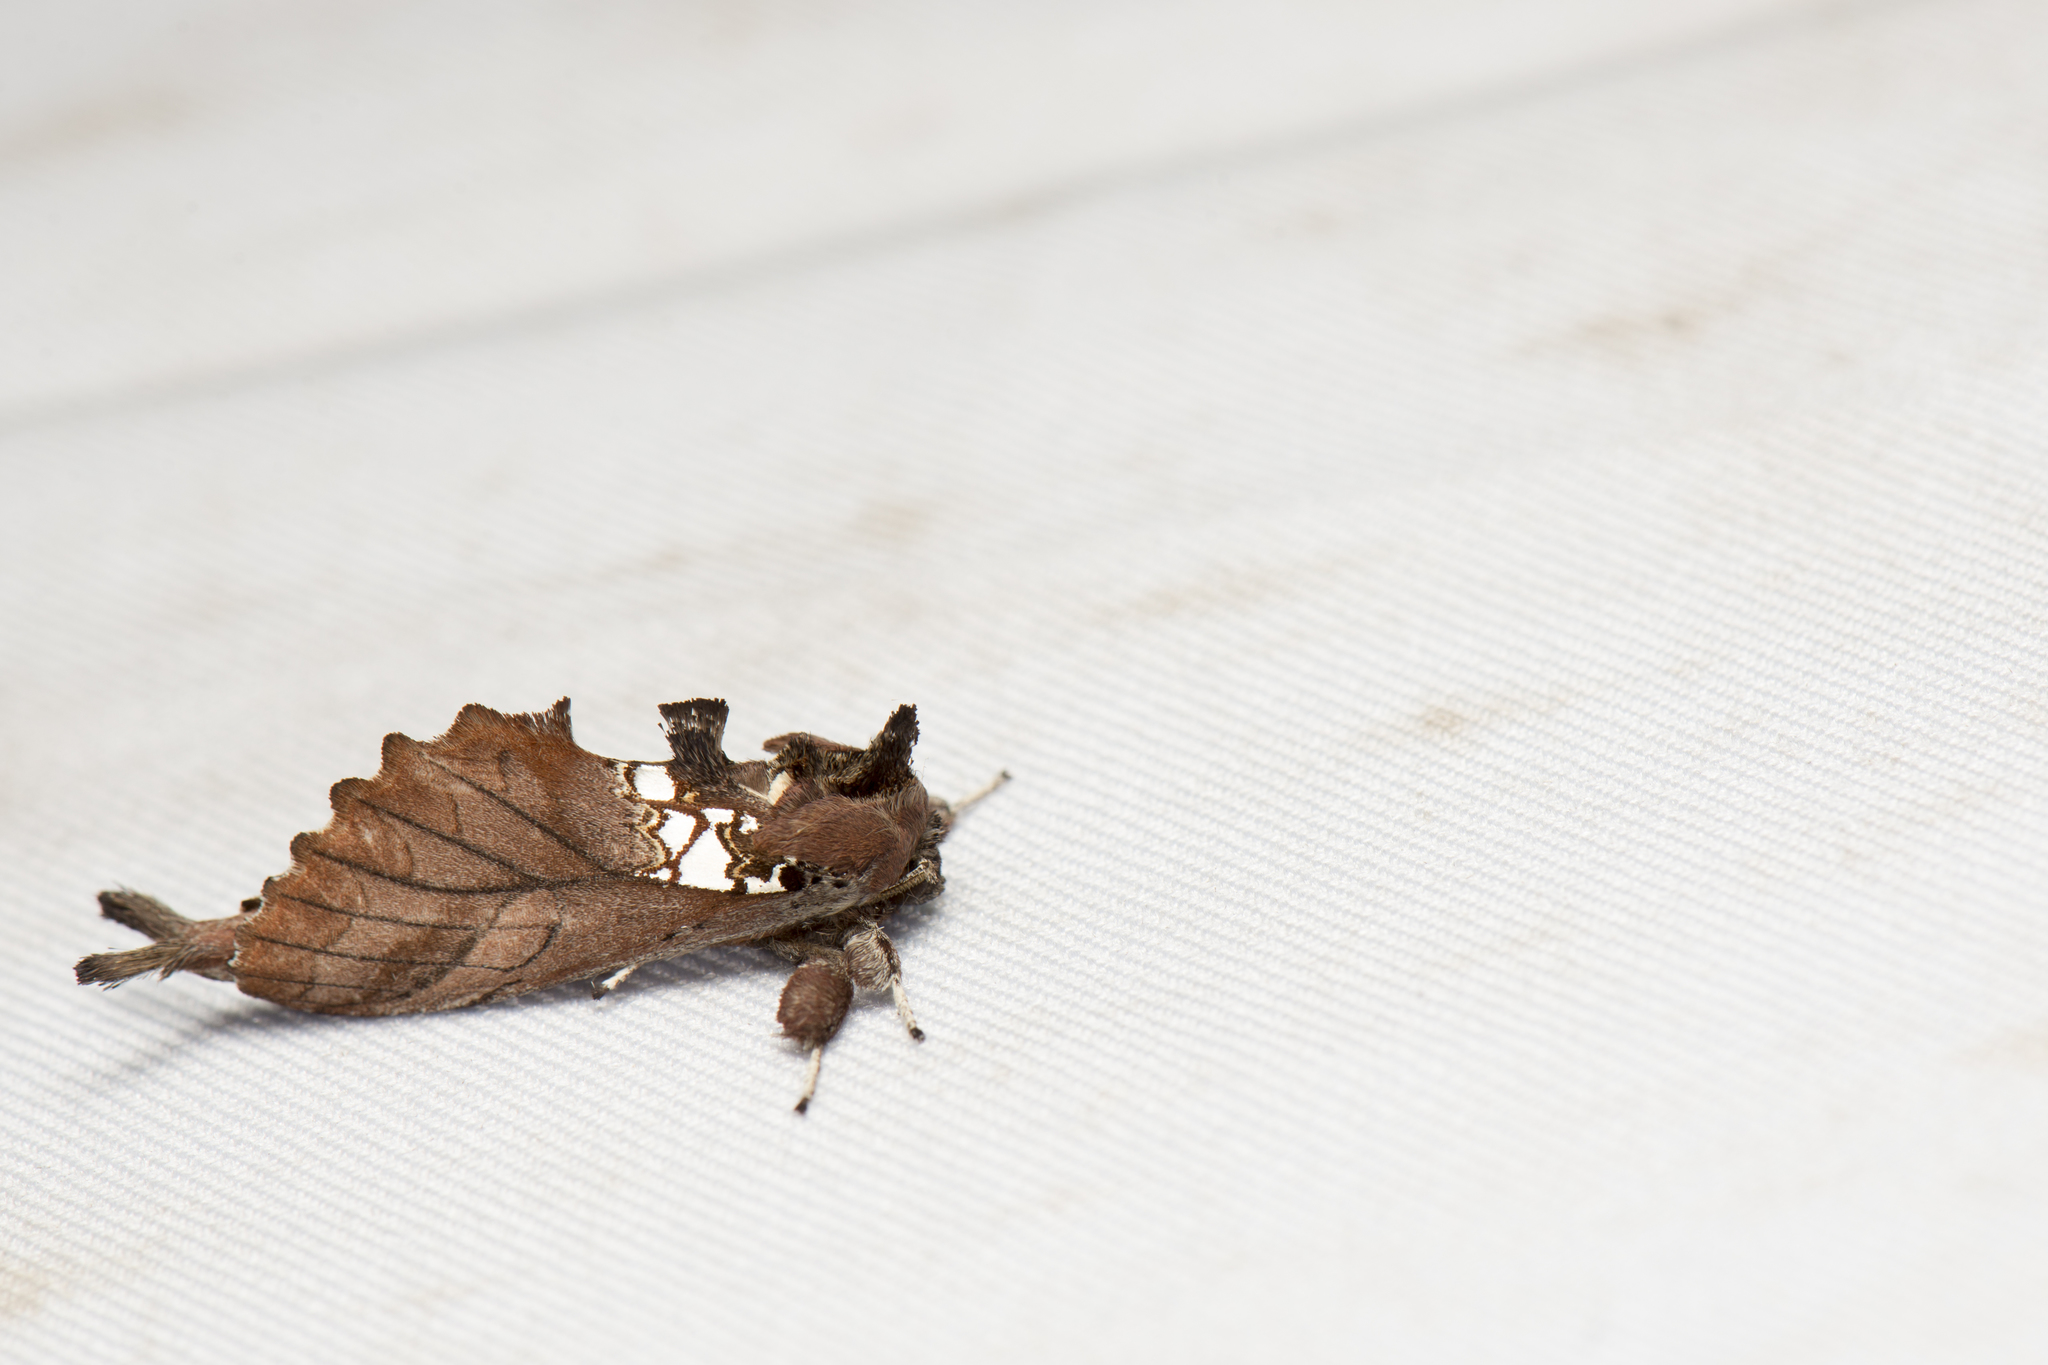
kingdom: Animalia
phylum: Arthropoda
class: Insecta
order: Lepidoptera
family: Notodontidae
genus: Spatalia
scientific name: Spatalia dives
